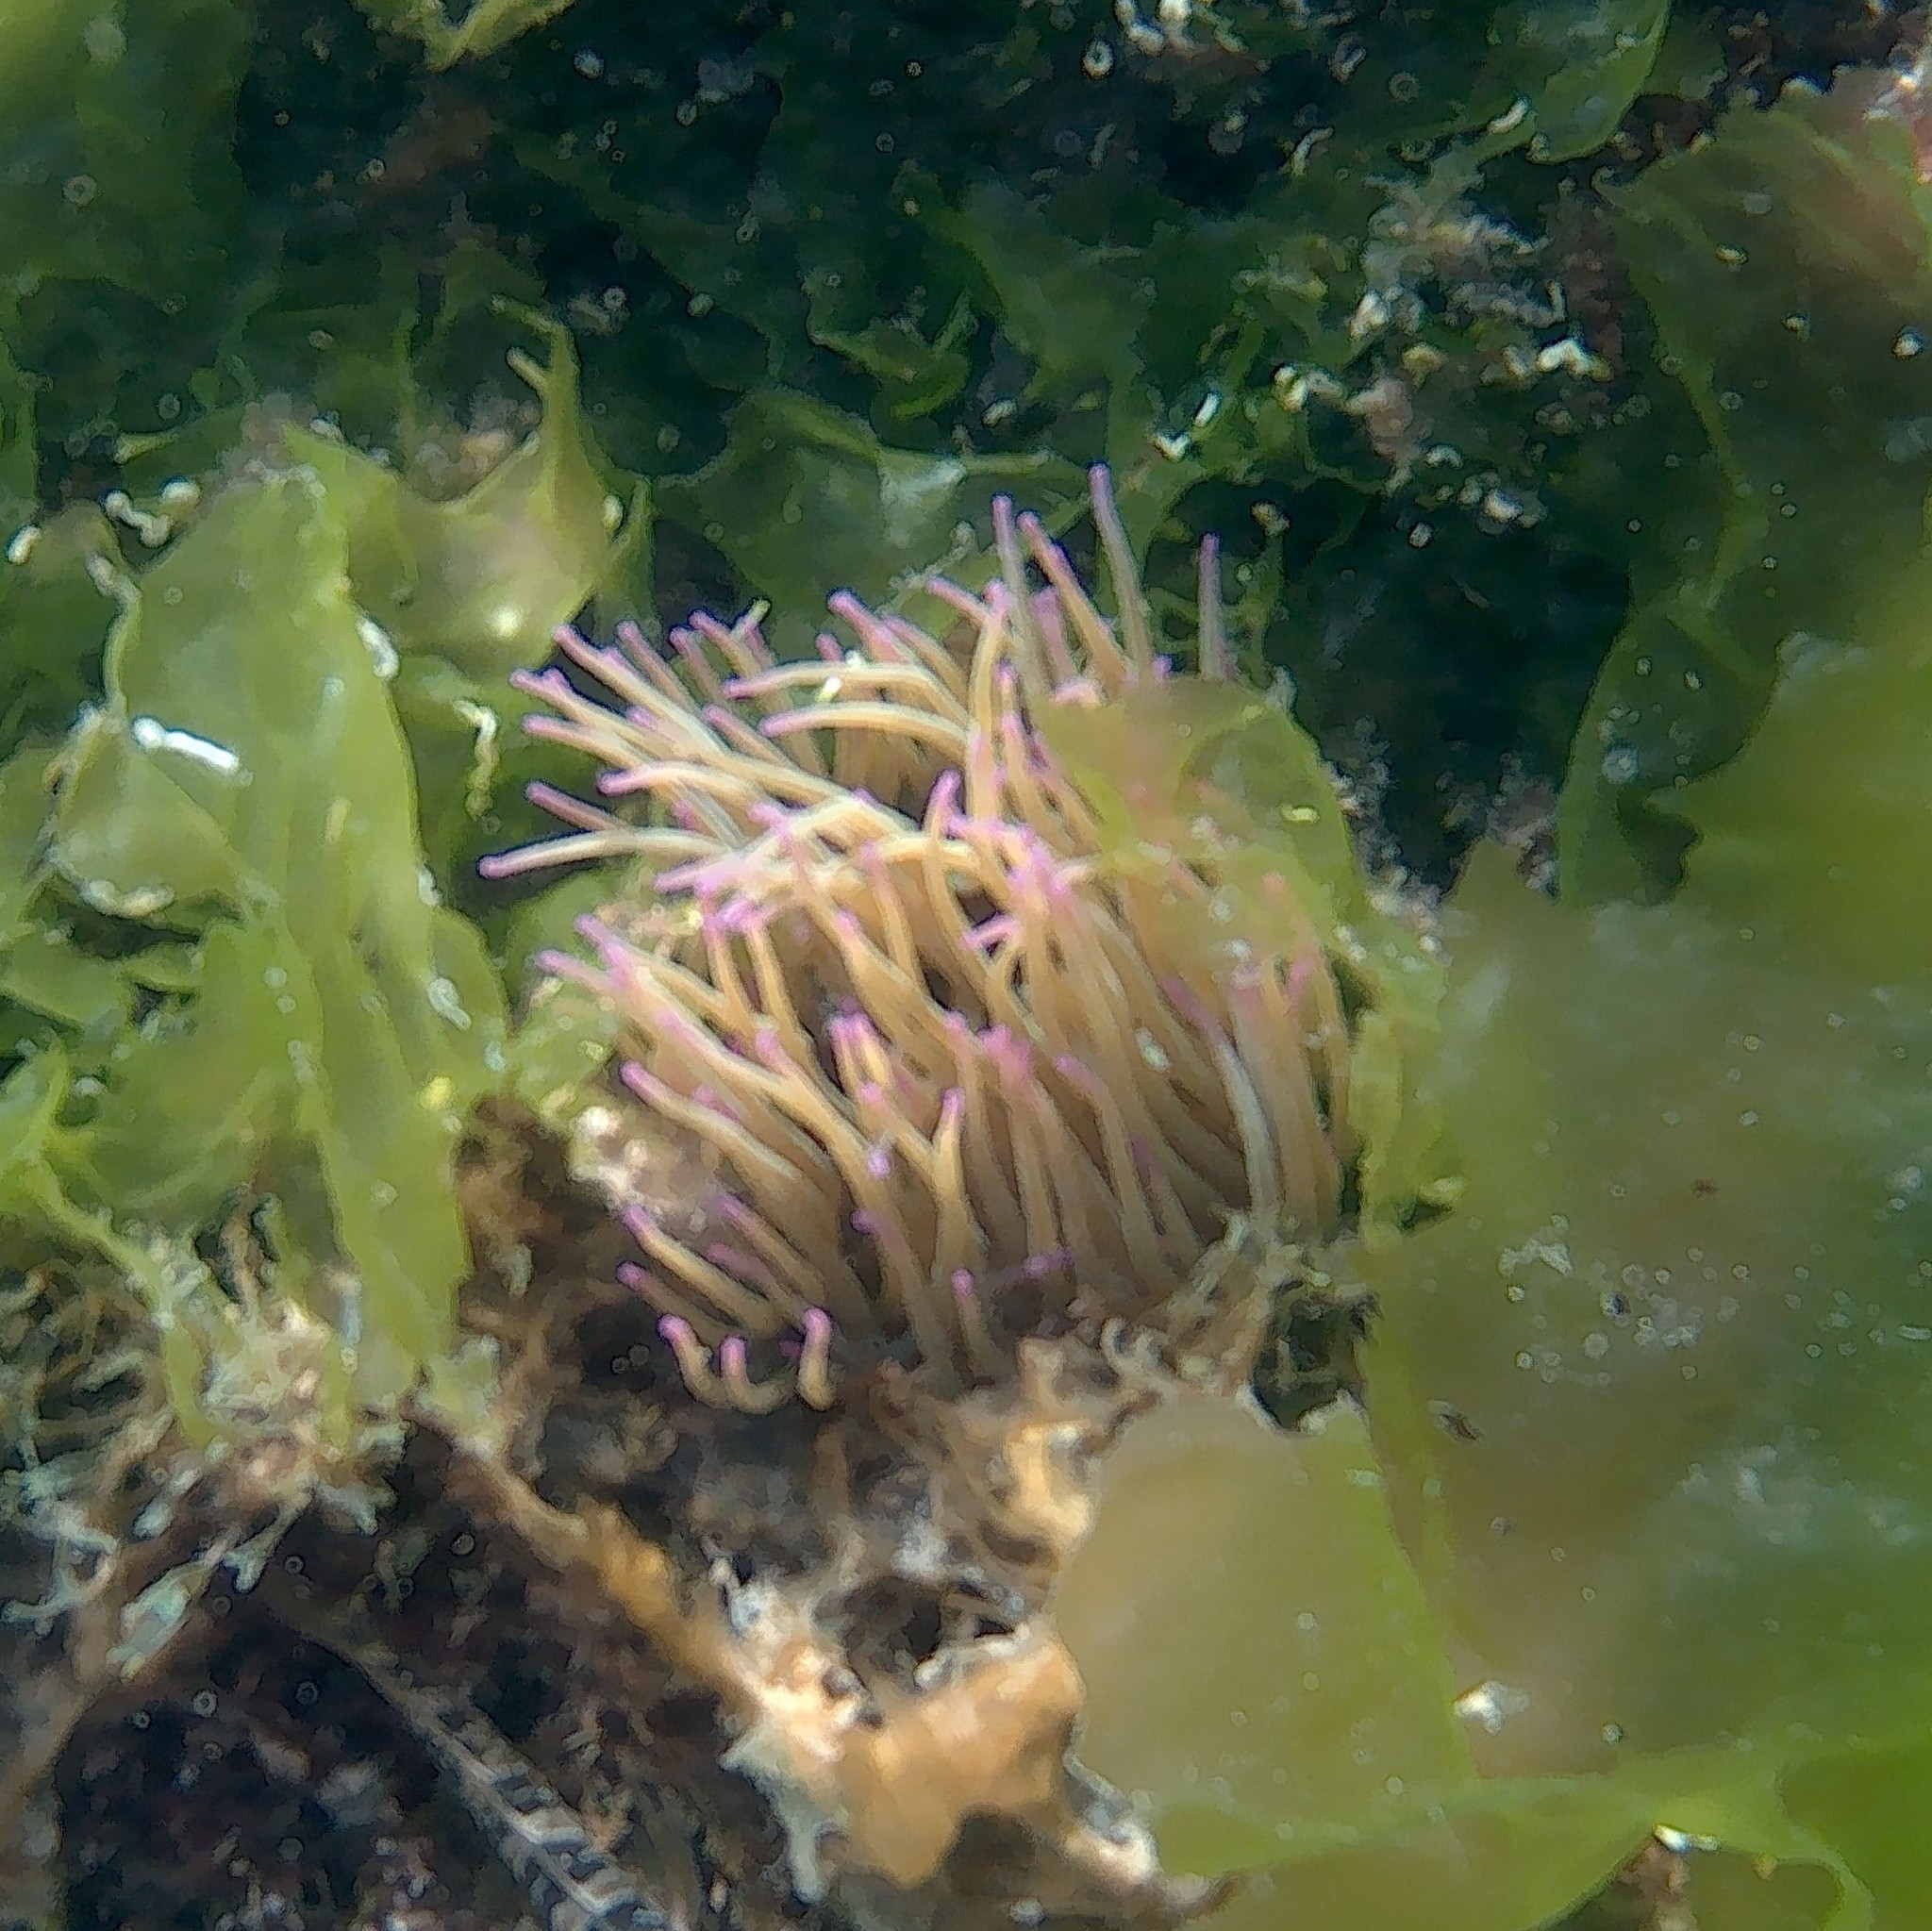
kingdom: Animalia
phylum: Cnidaria
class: Anthozoa
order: Actiniaria
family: Actiniidae
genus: Anemonia
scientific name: Anemonia viridis
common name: Snakelocks anemone
